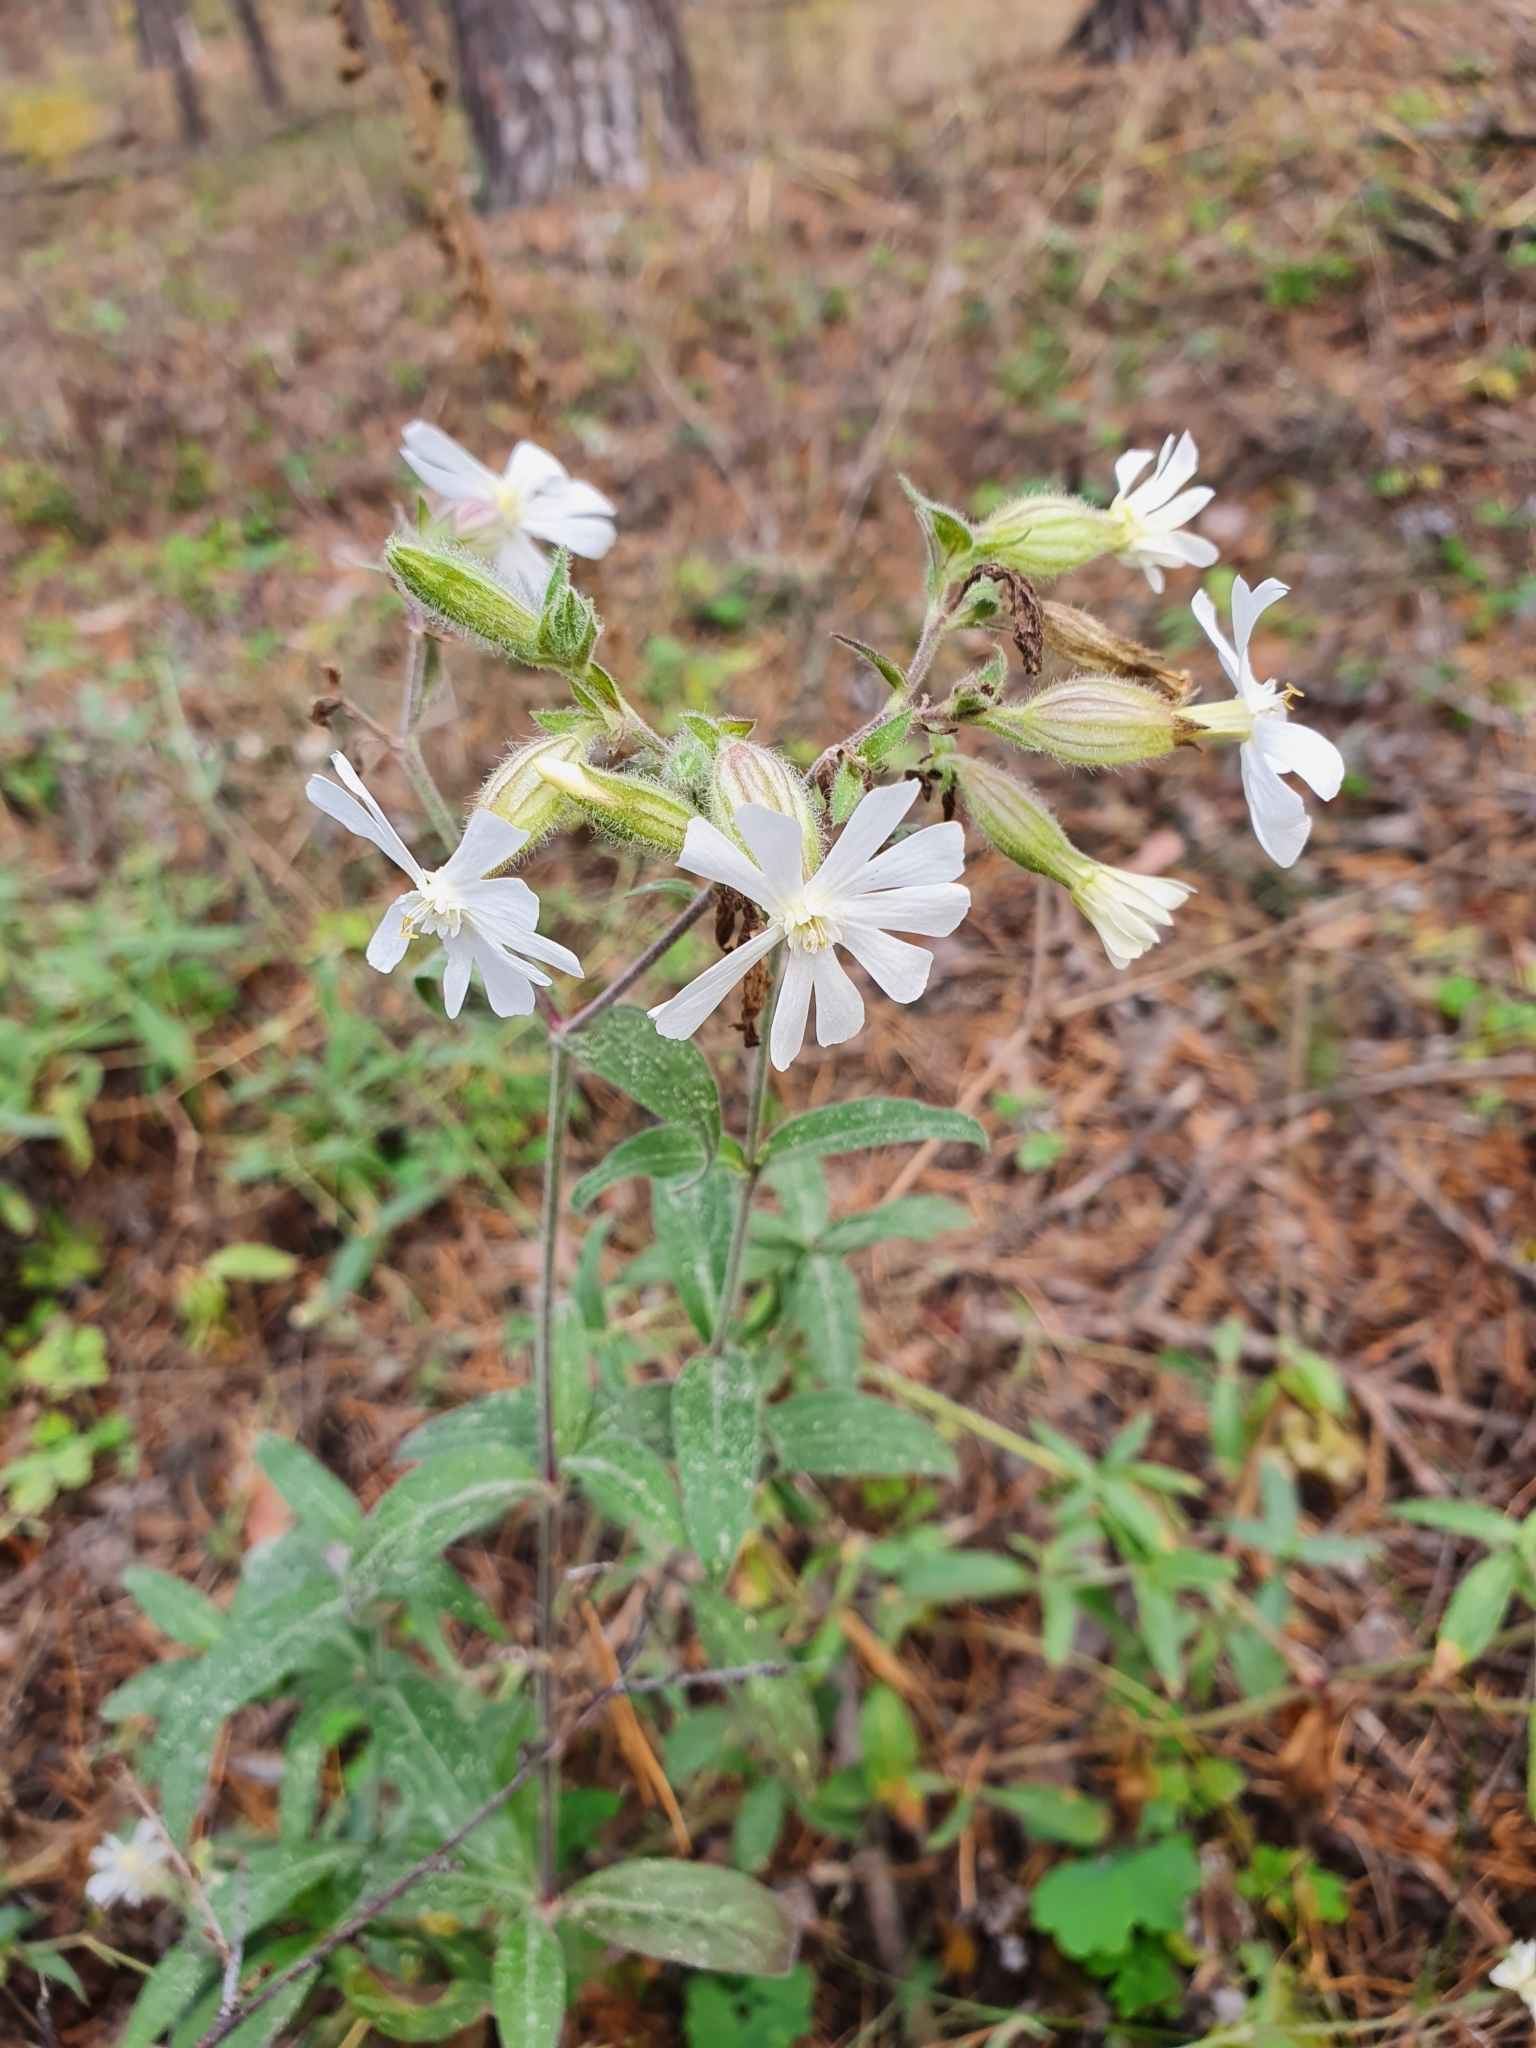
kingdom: Plantae
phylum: Tracheophyta
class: Magnoliopsida
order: Caryophyllales
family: Caryophyllaceae
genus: Silene
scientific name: Silene latifolia
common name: White campion
